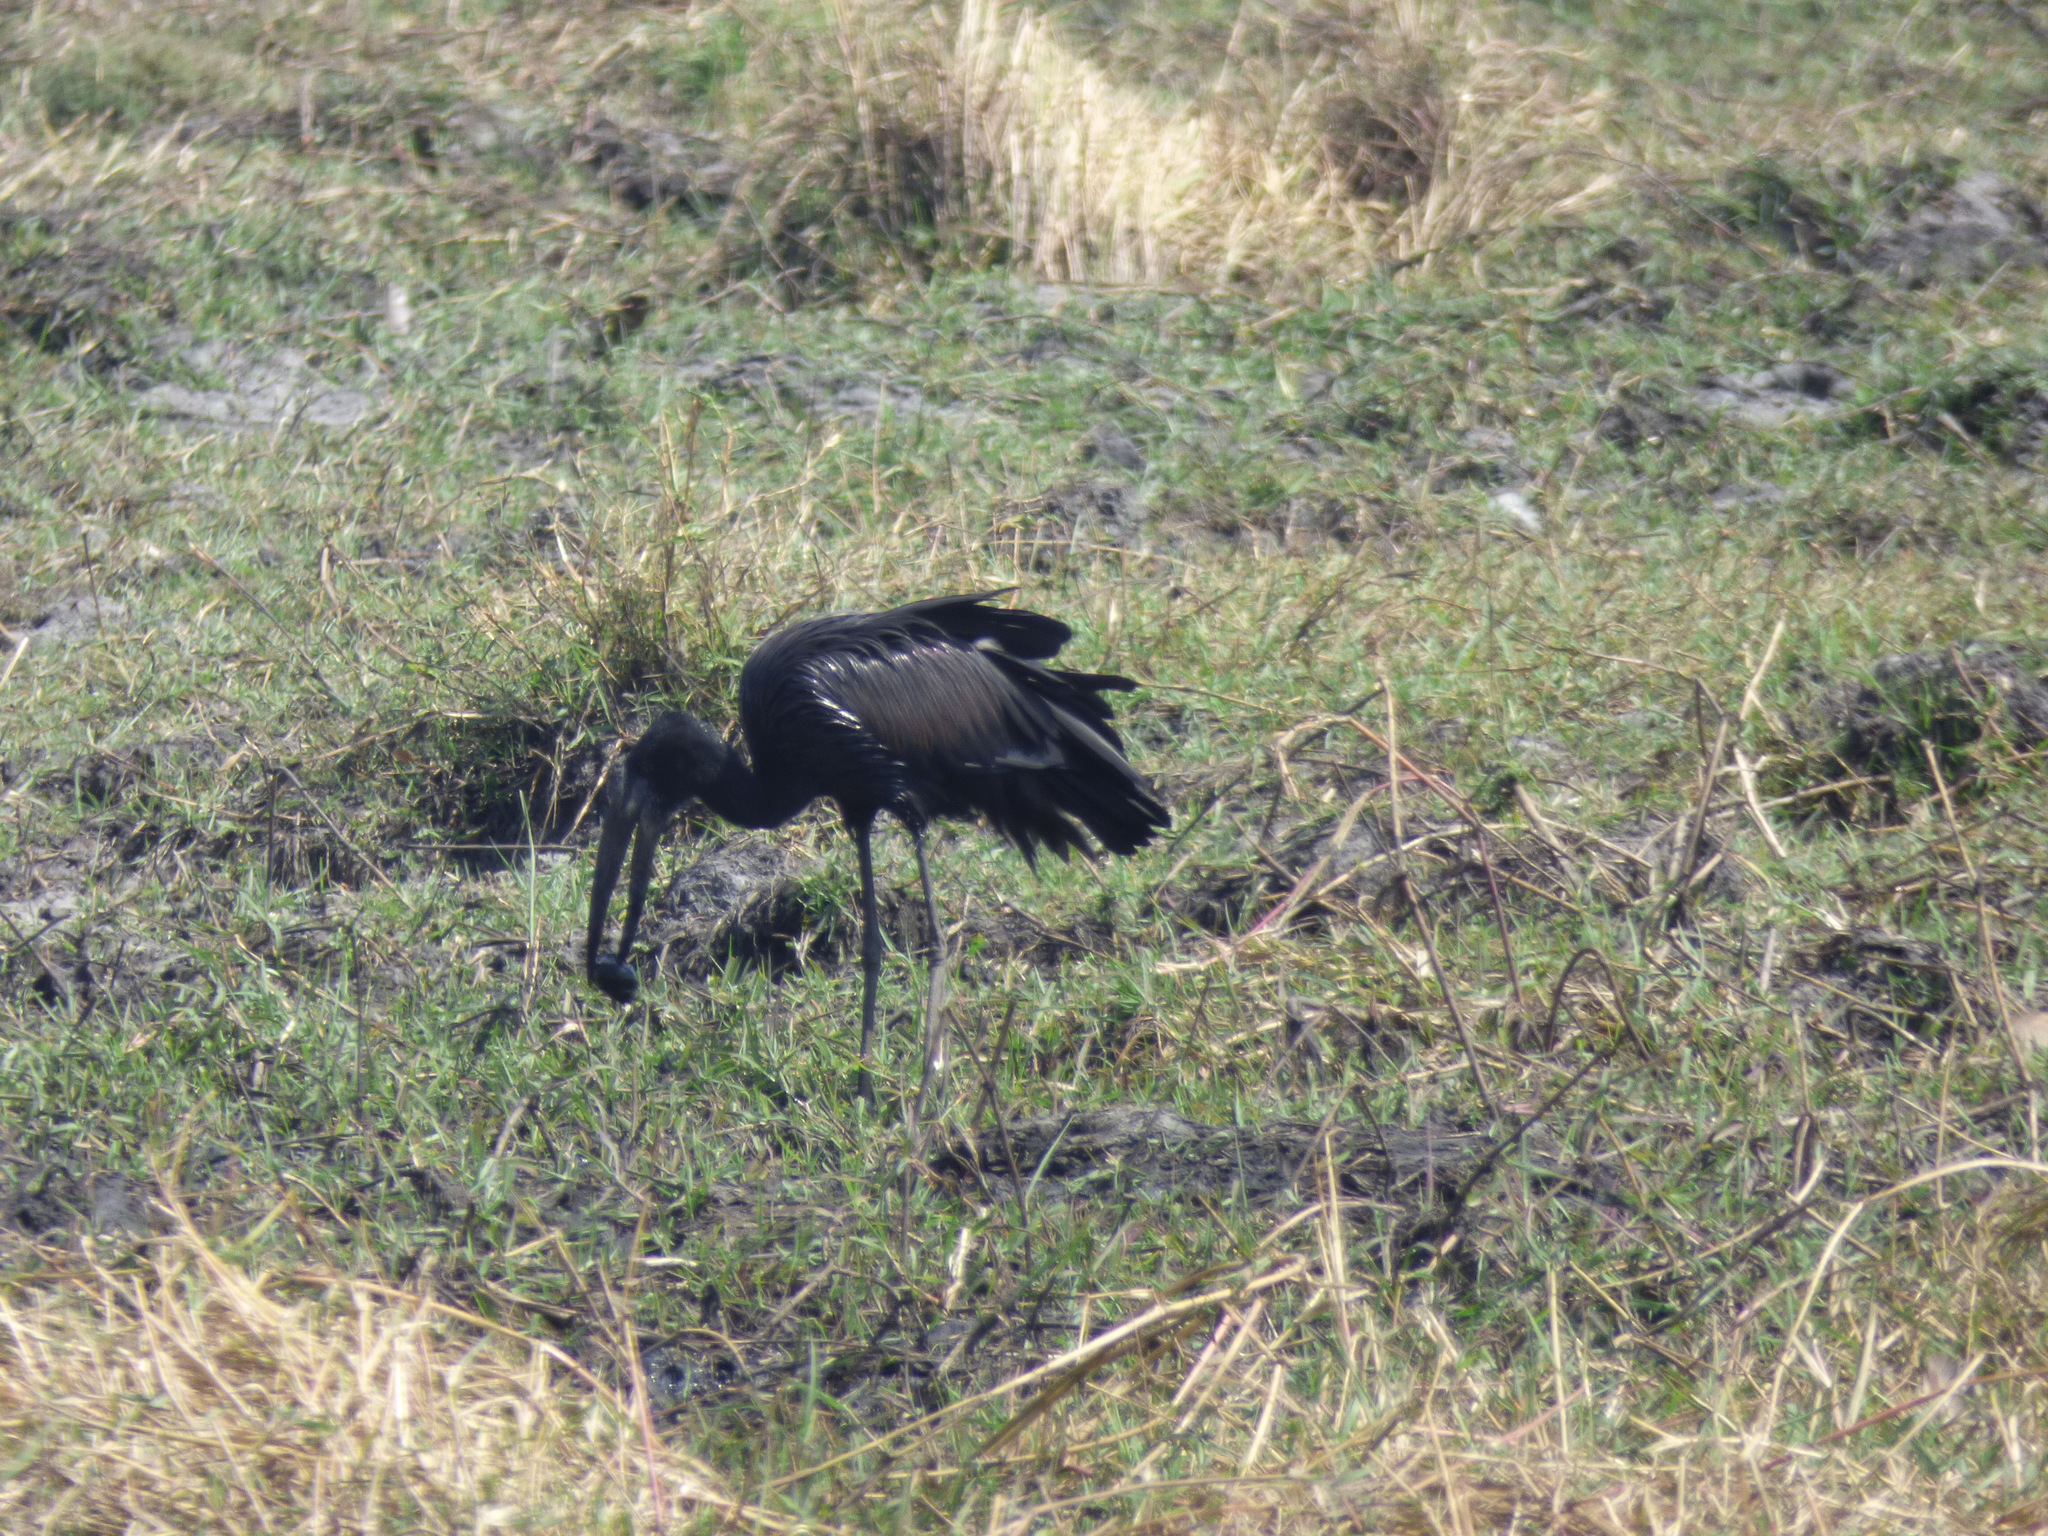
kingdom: Animalia
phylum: Chordata
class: Aves
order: Ciconiiformes
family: Ciconiidae
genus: Anastomus
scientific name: Anastomus lamelligerus
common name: African openbill
